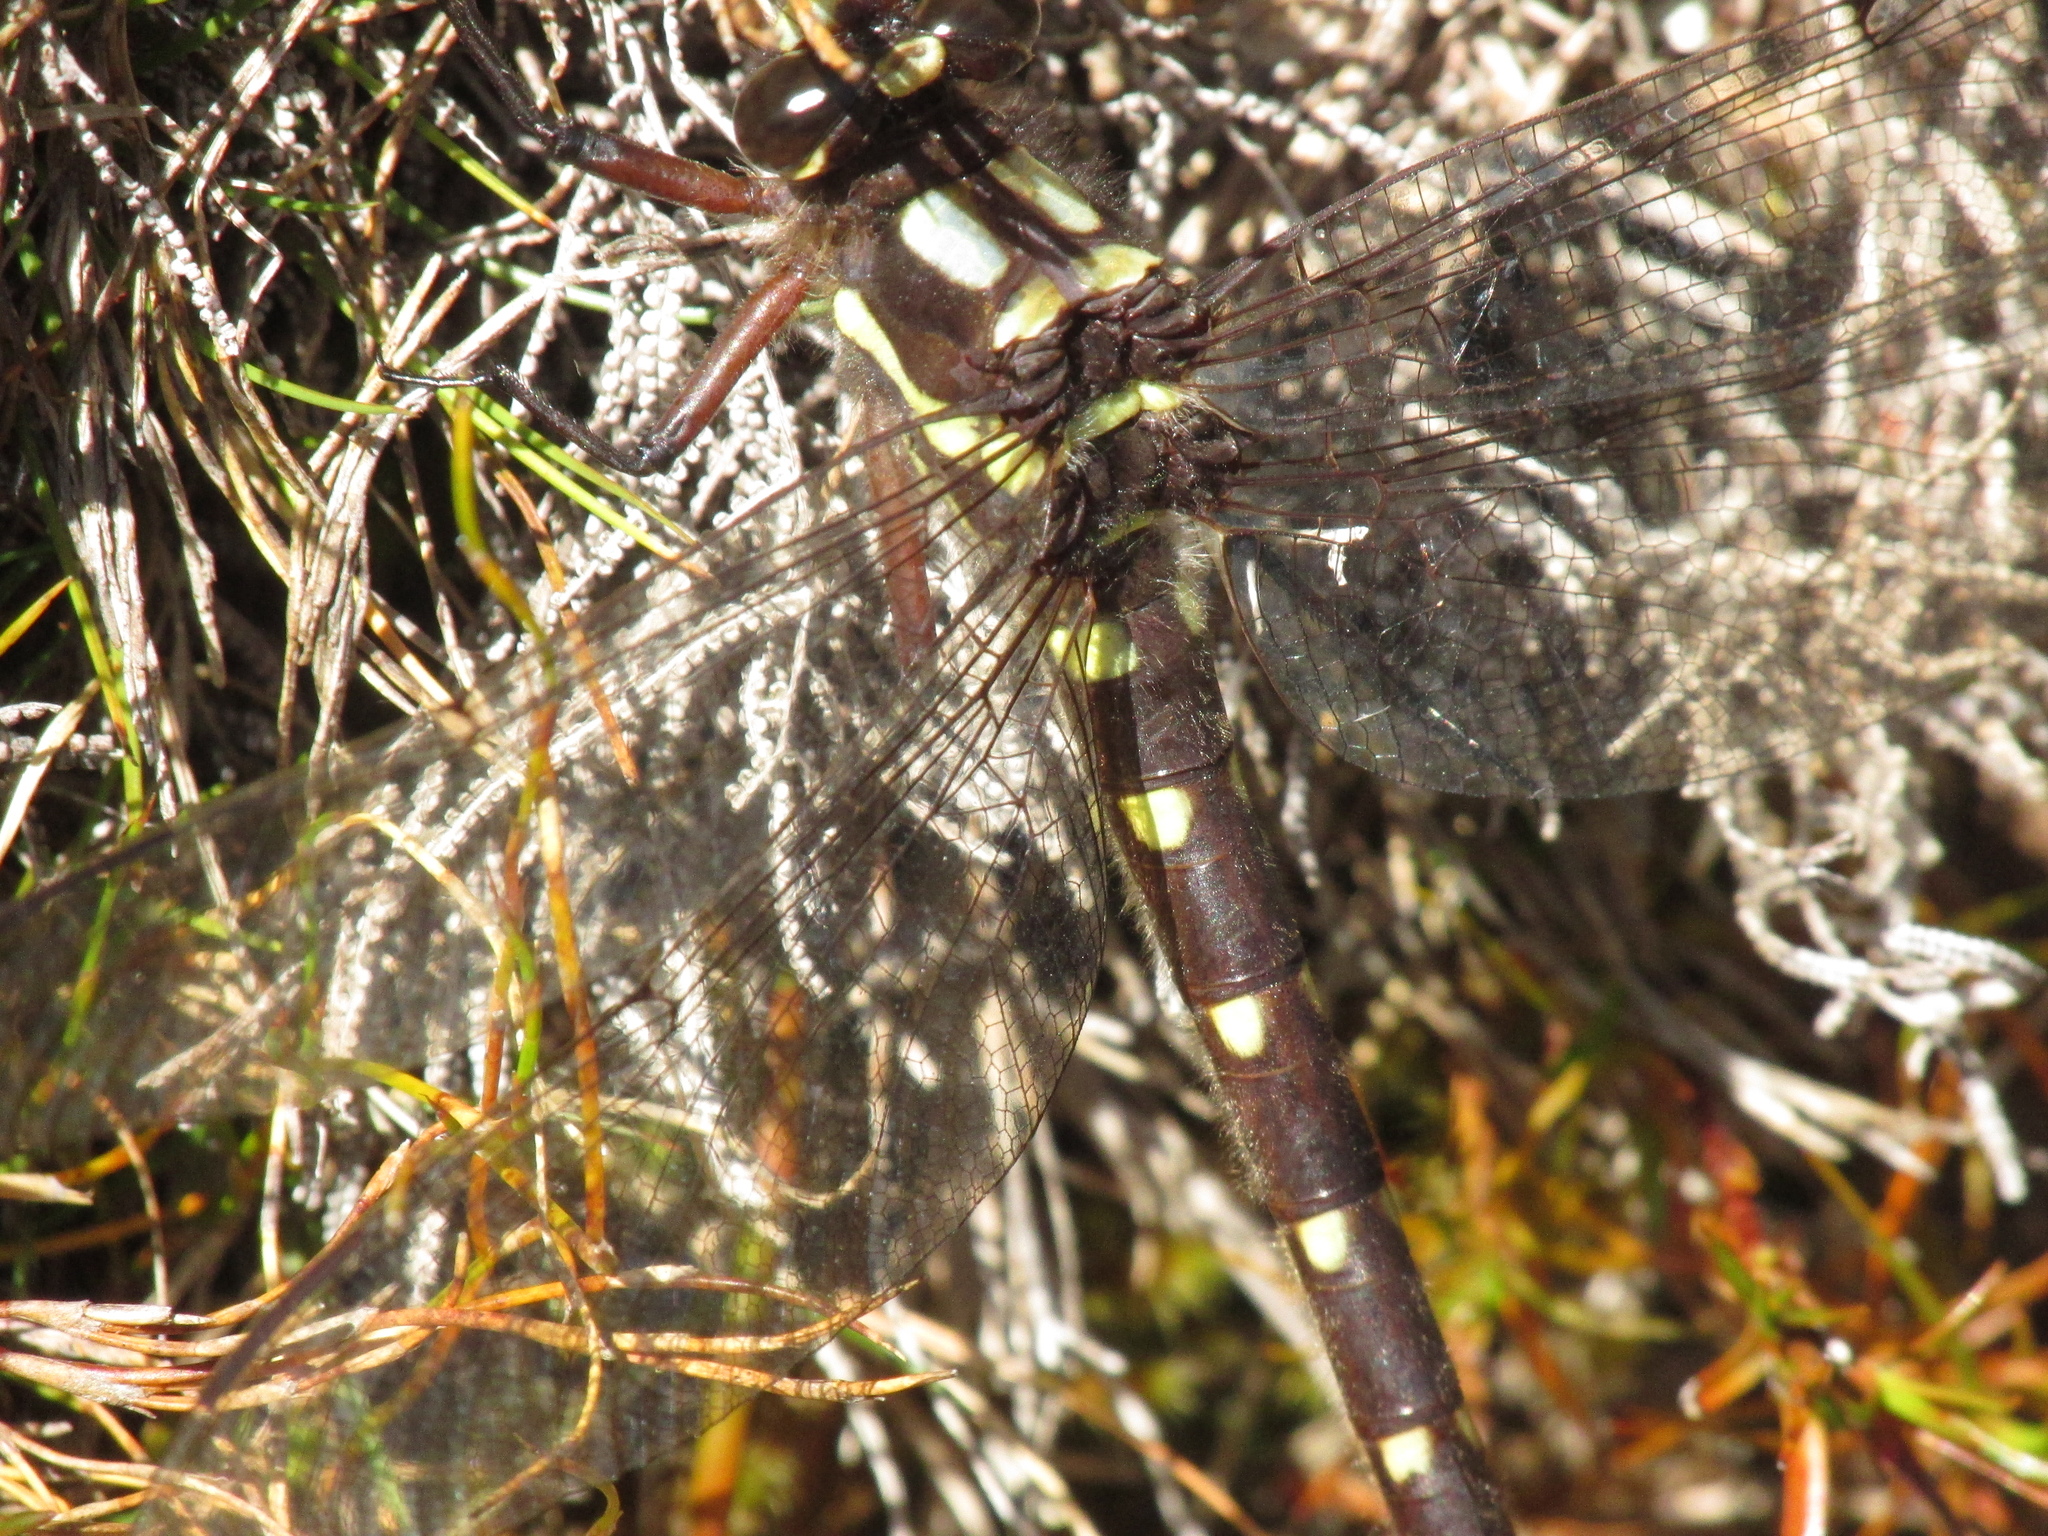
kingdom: Animalia
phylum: Arthropoda
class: Insecta
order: Odonata
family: Petaluridae
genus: Uropetala
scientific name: Uropetala carovei
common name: Bush giant dragonfly
